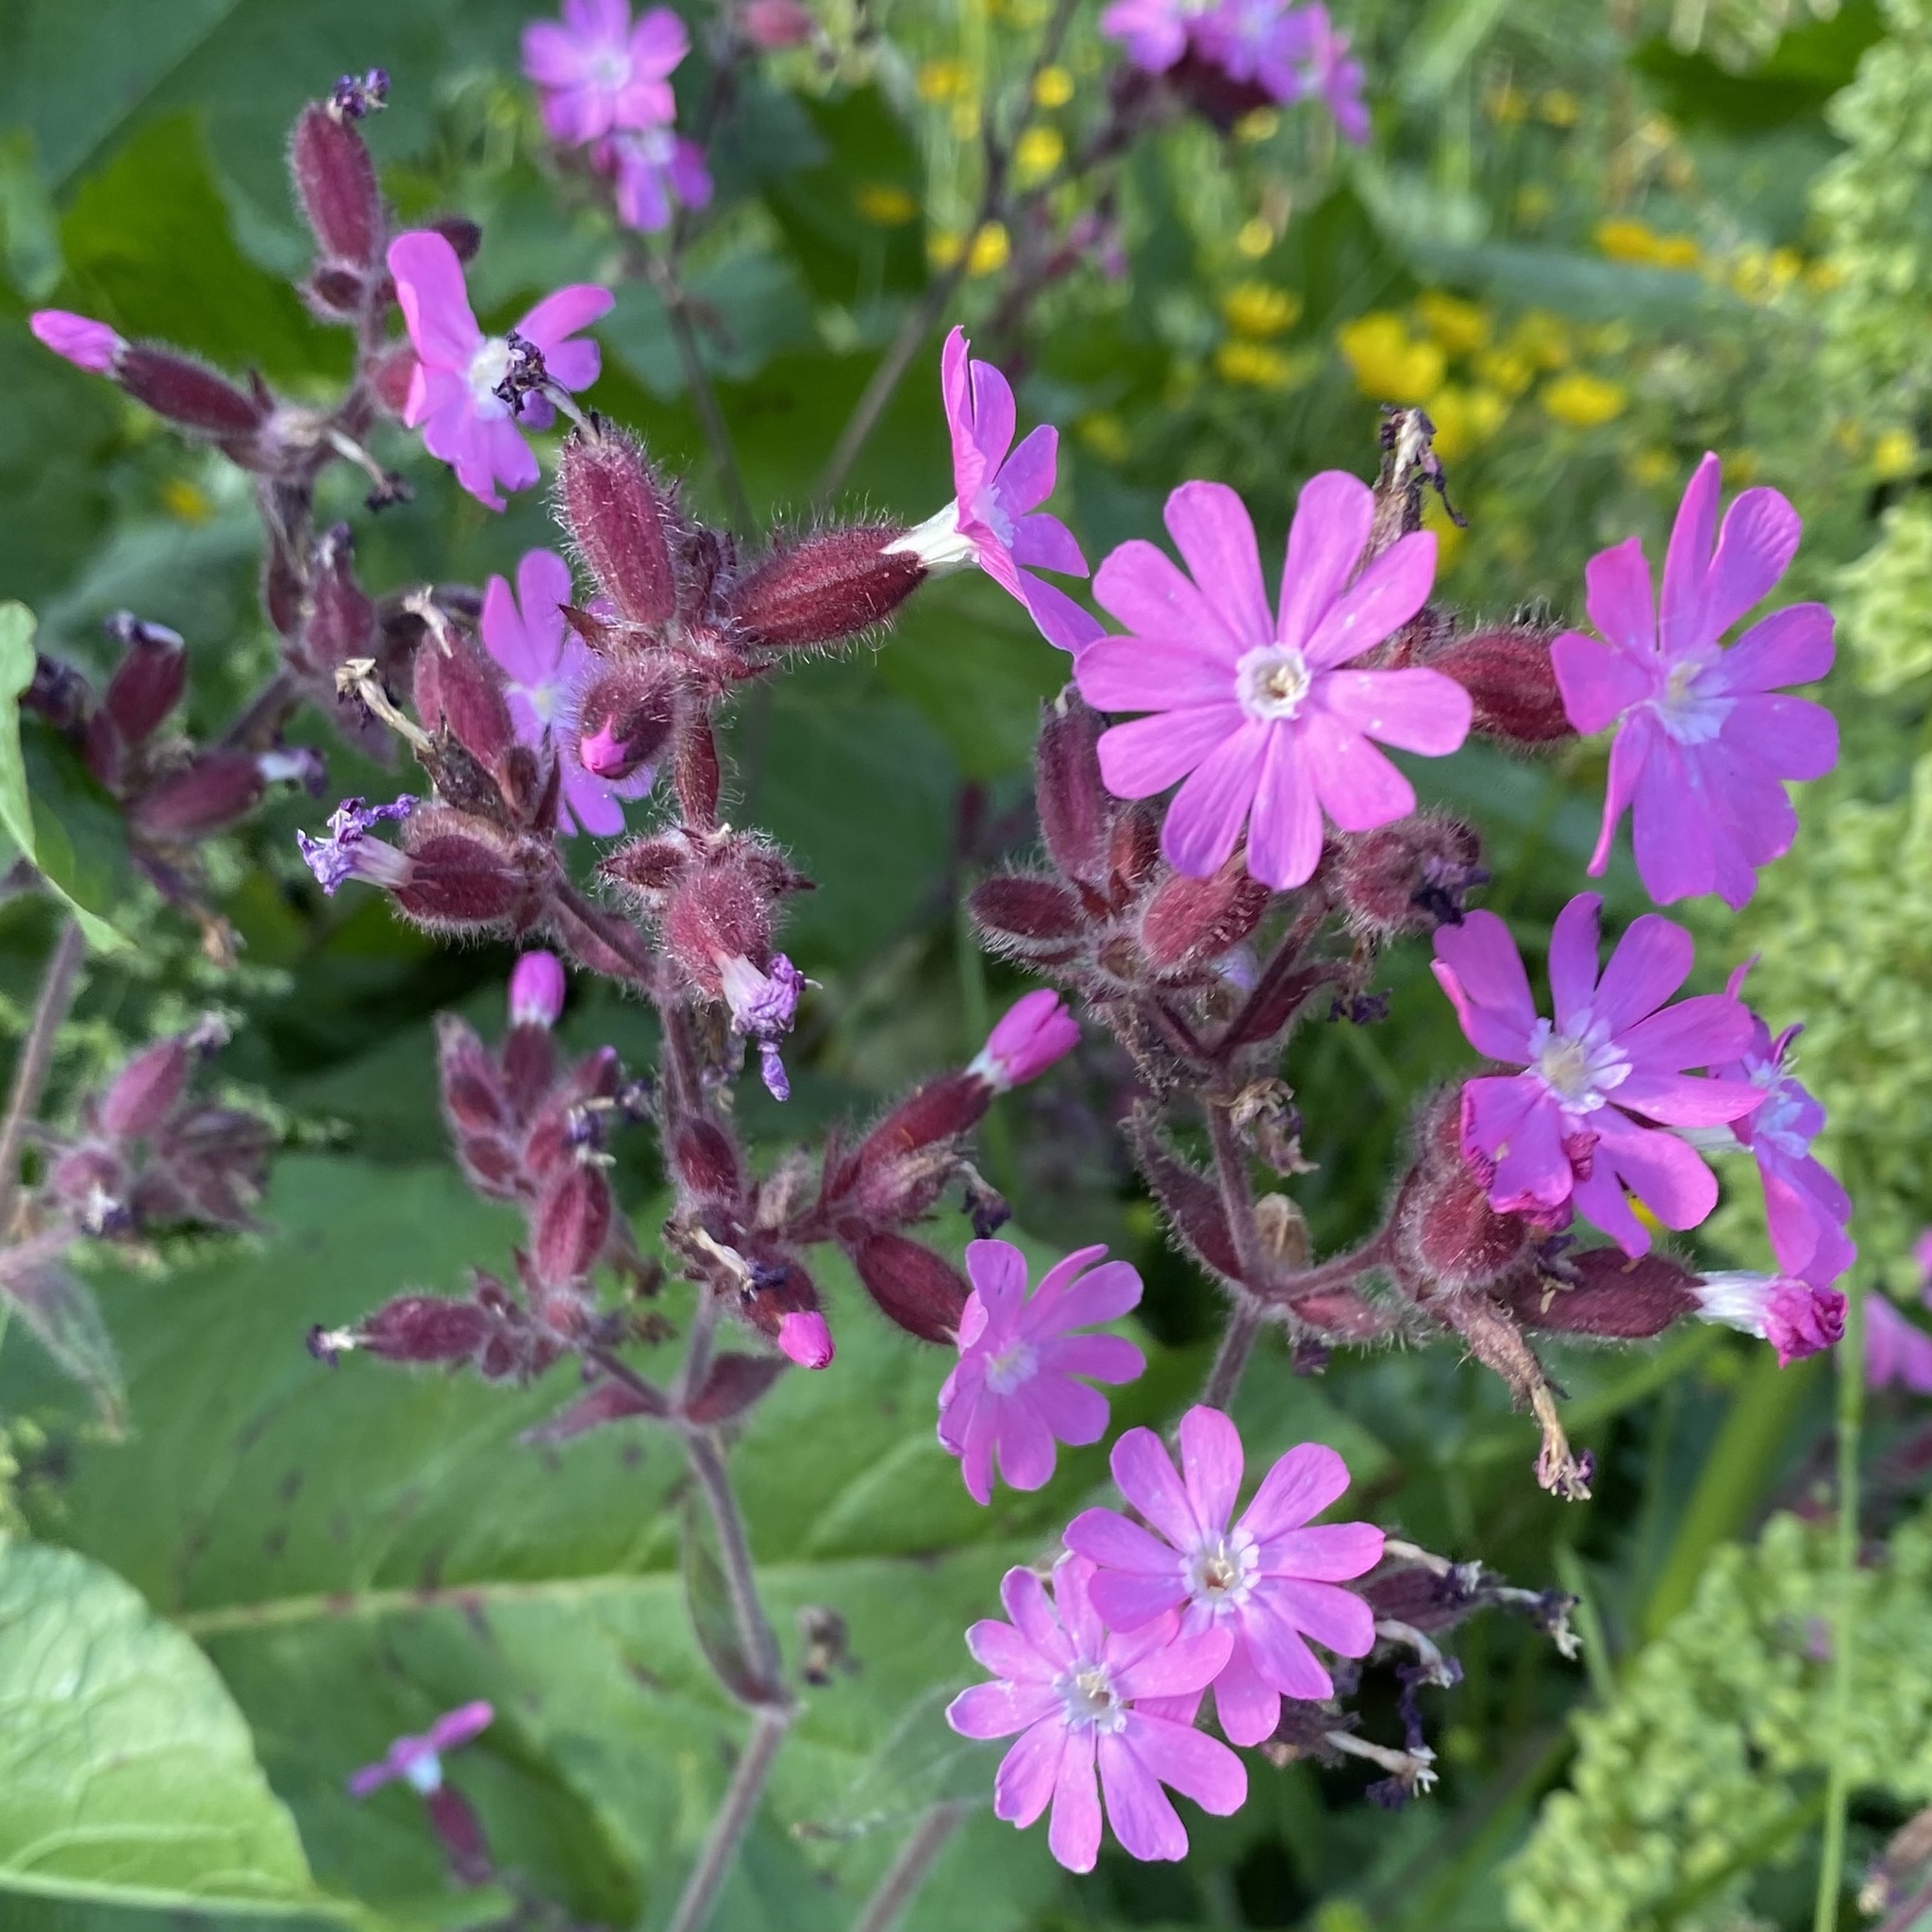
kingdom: Plantae
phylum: Tracheophyta
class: Magnoliopsida
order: Caryophyllales
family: Caryophyllaceae
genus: Silene
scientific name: Silene dioica
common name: Red campion
